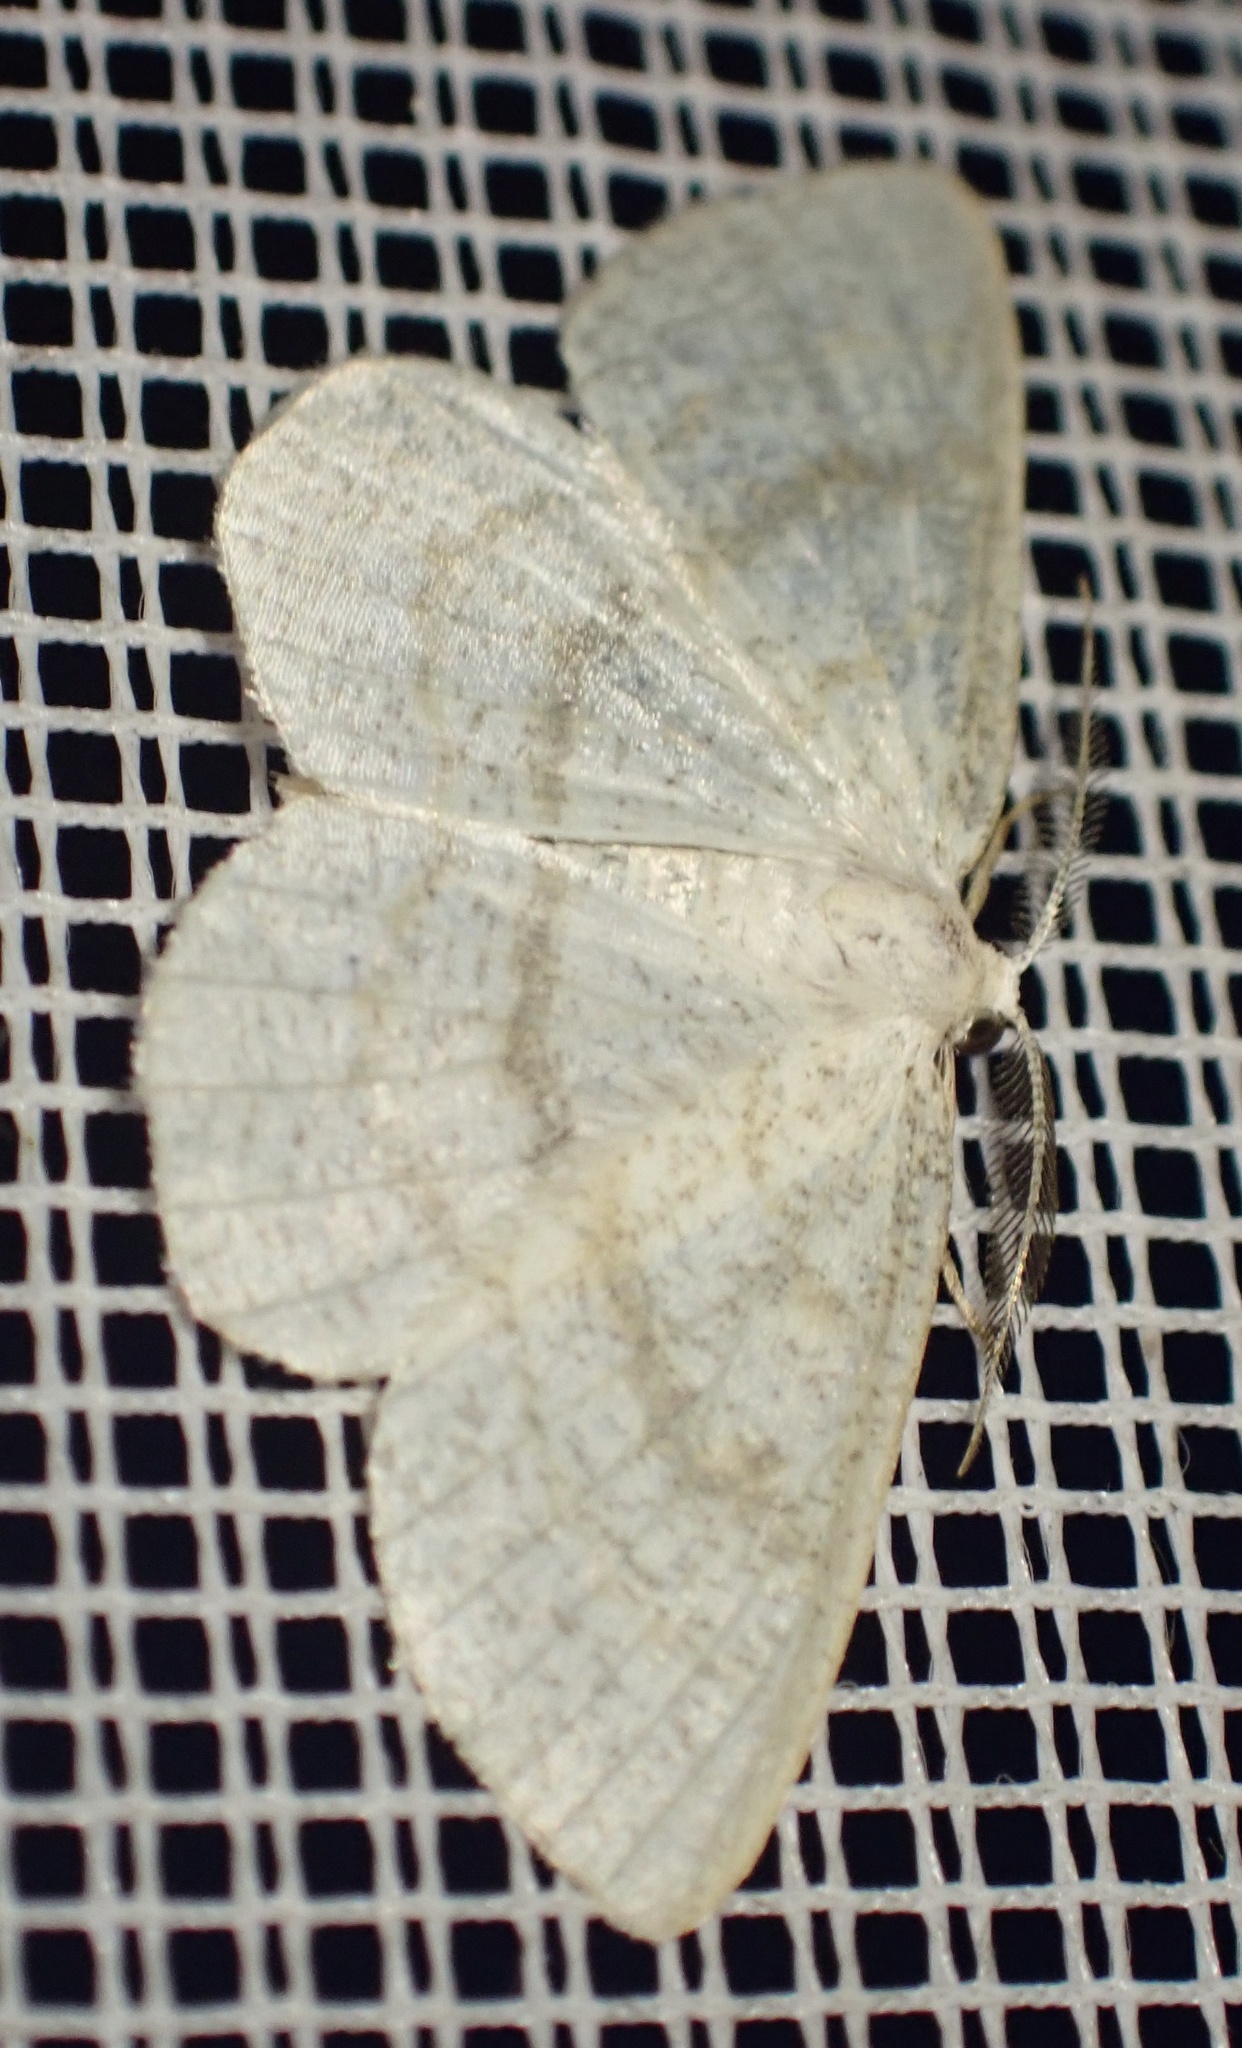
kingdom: Animalia
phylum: Arthropoda
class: Insecta
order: Lepidoptera
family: Geometridae
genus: Cabera
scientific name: Cabera exanthemata
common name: Common wave
